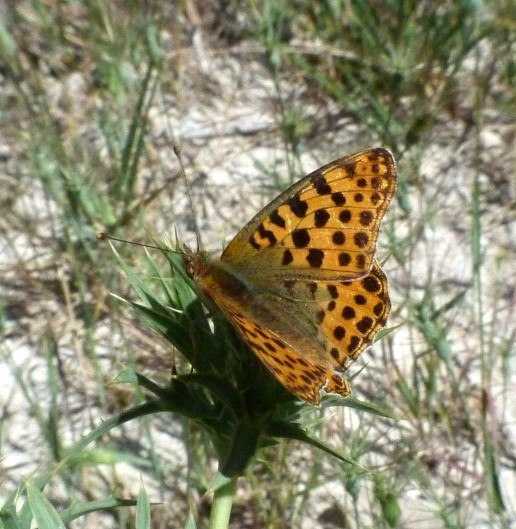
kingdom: Animalia
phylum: Arthropoda
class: Insecta
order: Lepidoptera
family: Nymphalidae
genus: Issoria
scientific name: Issoria lathonia
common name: Queen of spain fritillary
